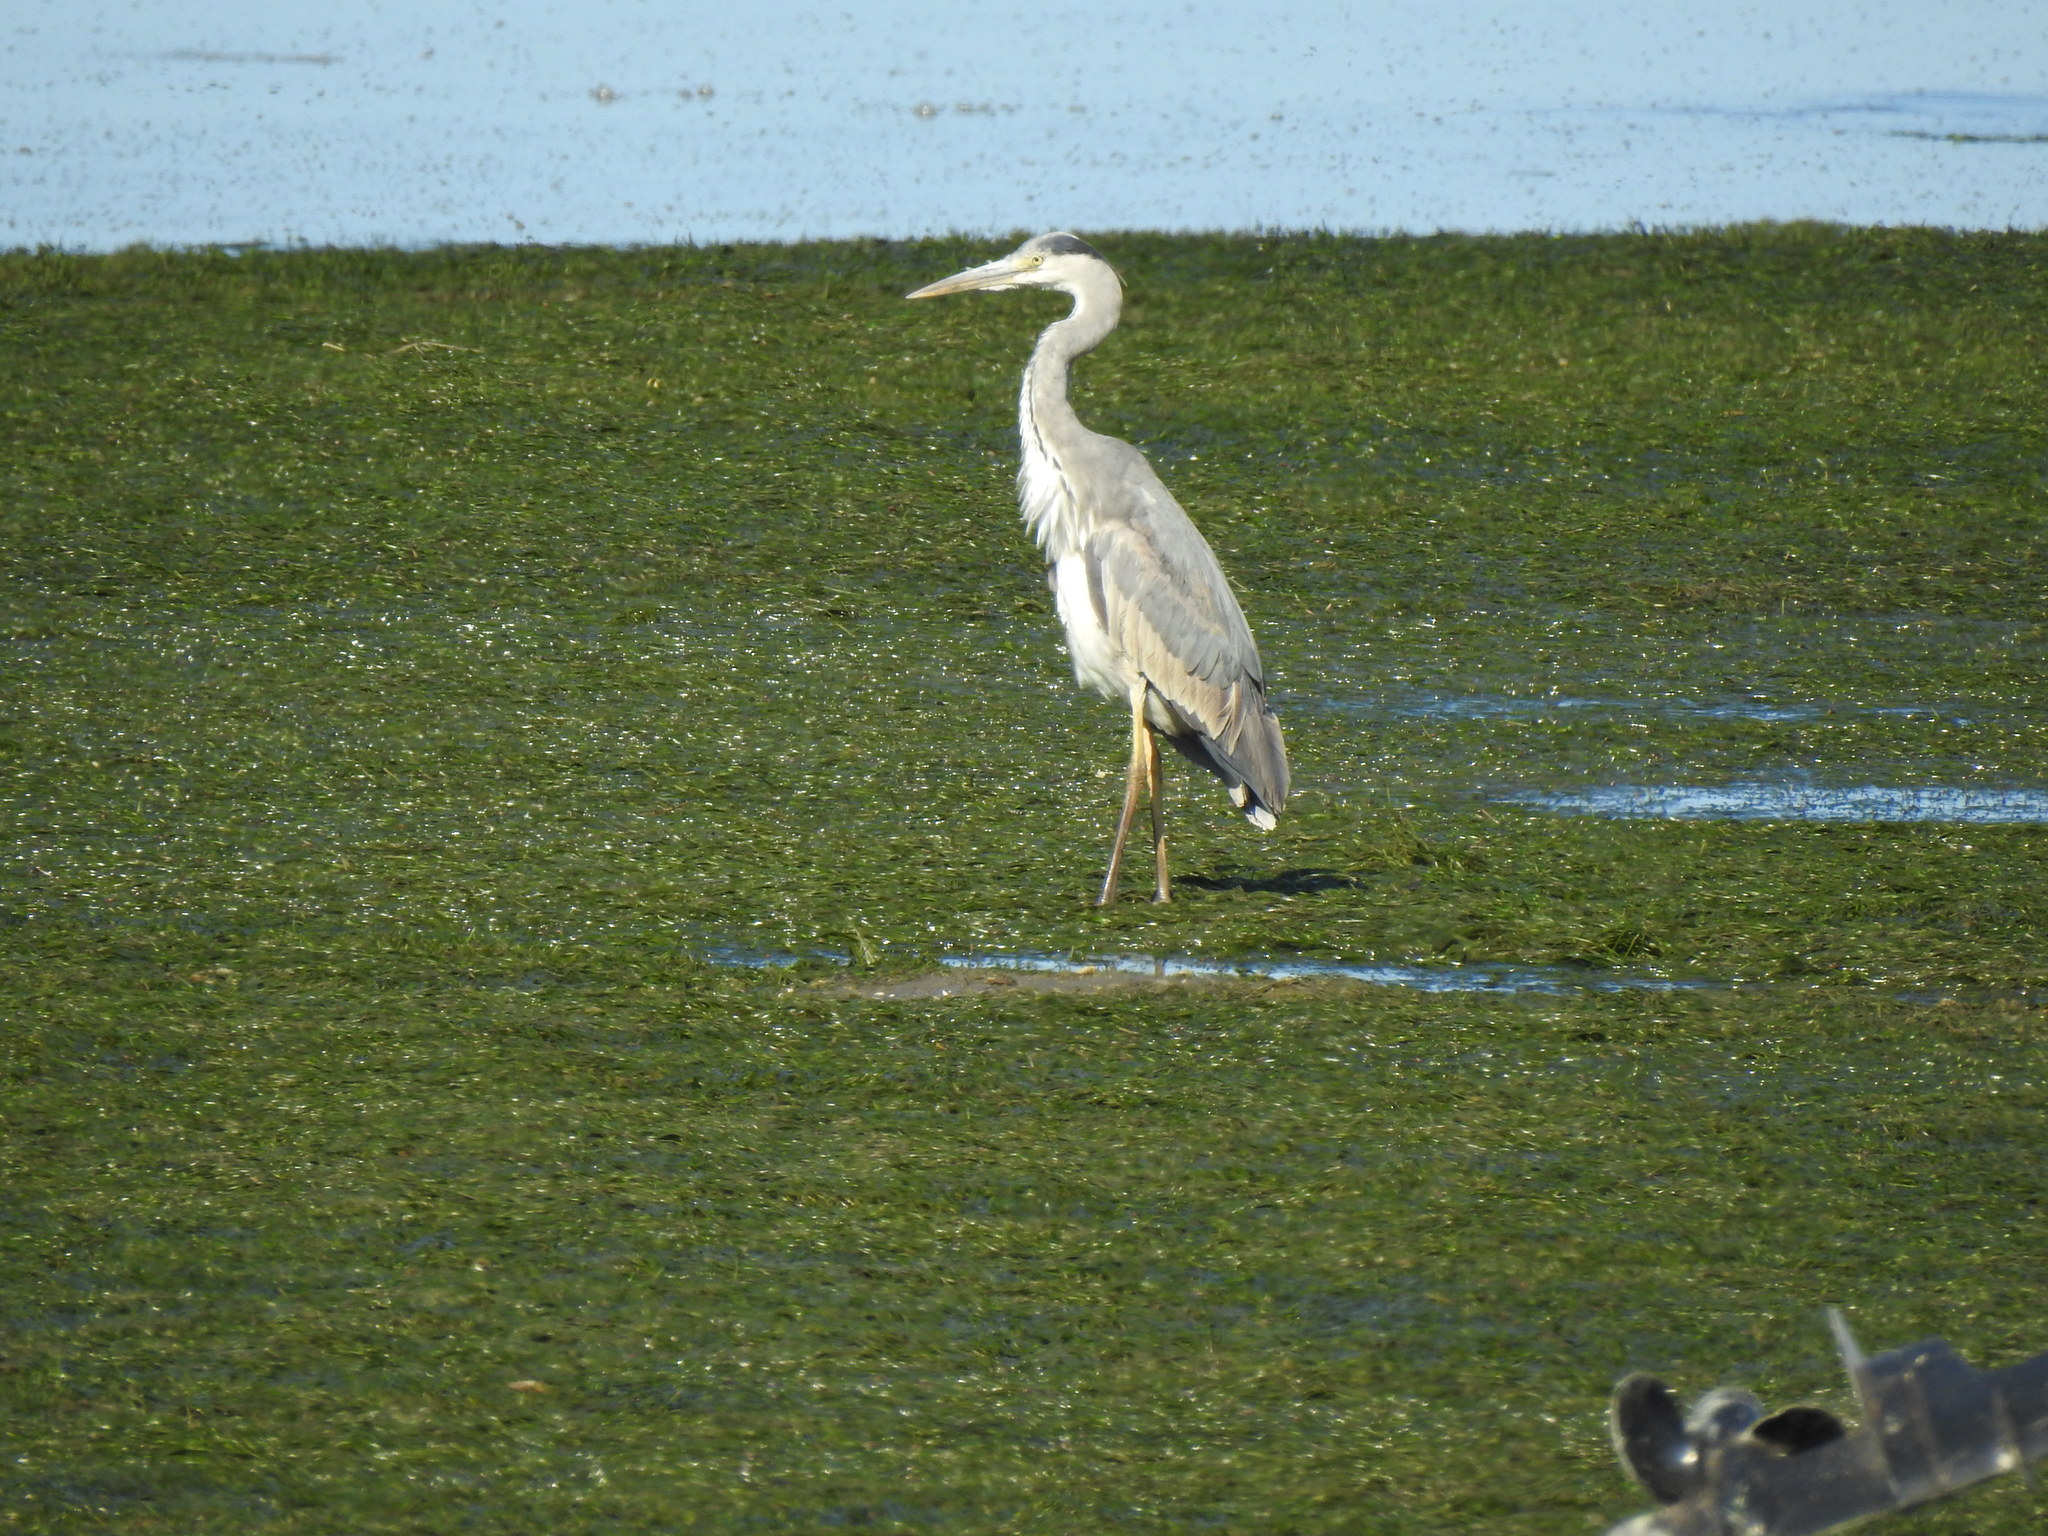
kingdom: Animalia
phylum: Chordata
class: Aves
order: Pelecaniformes
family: Ardeidae
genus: Ardea
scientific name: Ardea cinerea
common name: Grey heron
